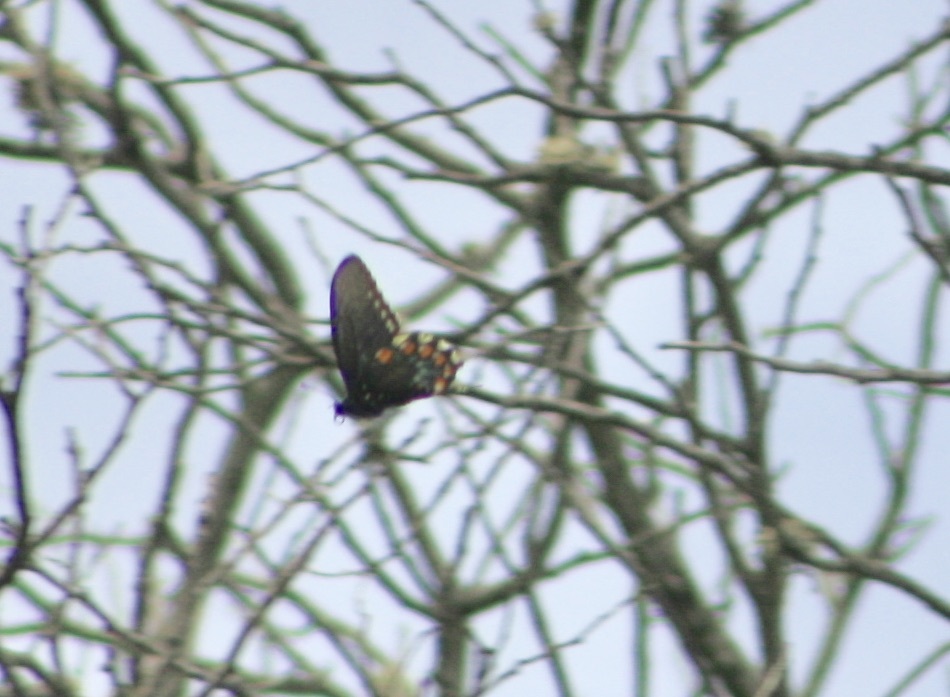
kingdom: Animalia
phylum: Arthropoda
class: Insecta
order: Lepidoptera
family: Papilionidae
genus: Battus
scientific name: Battus philenor
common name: Pipevine swallowtail
